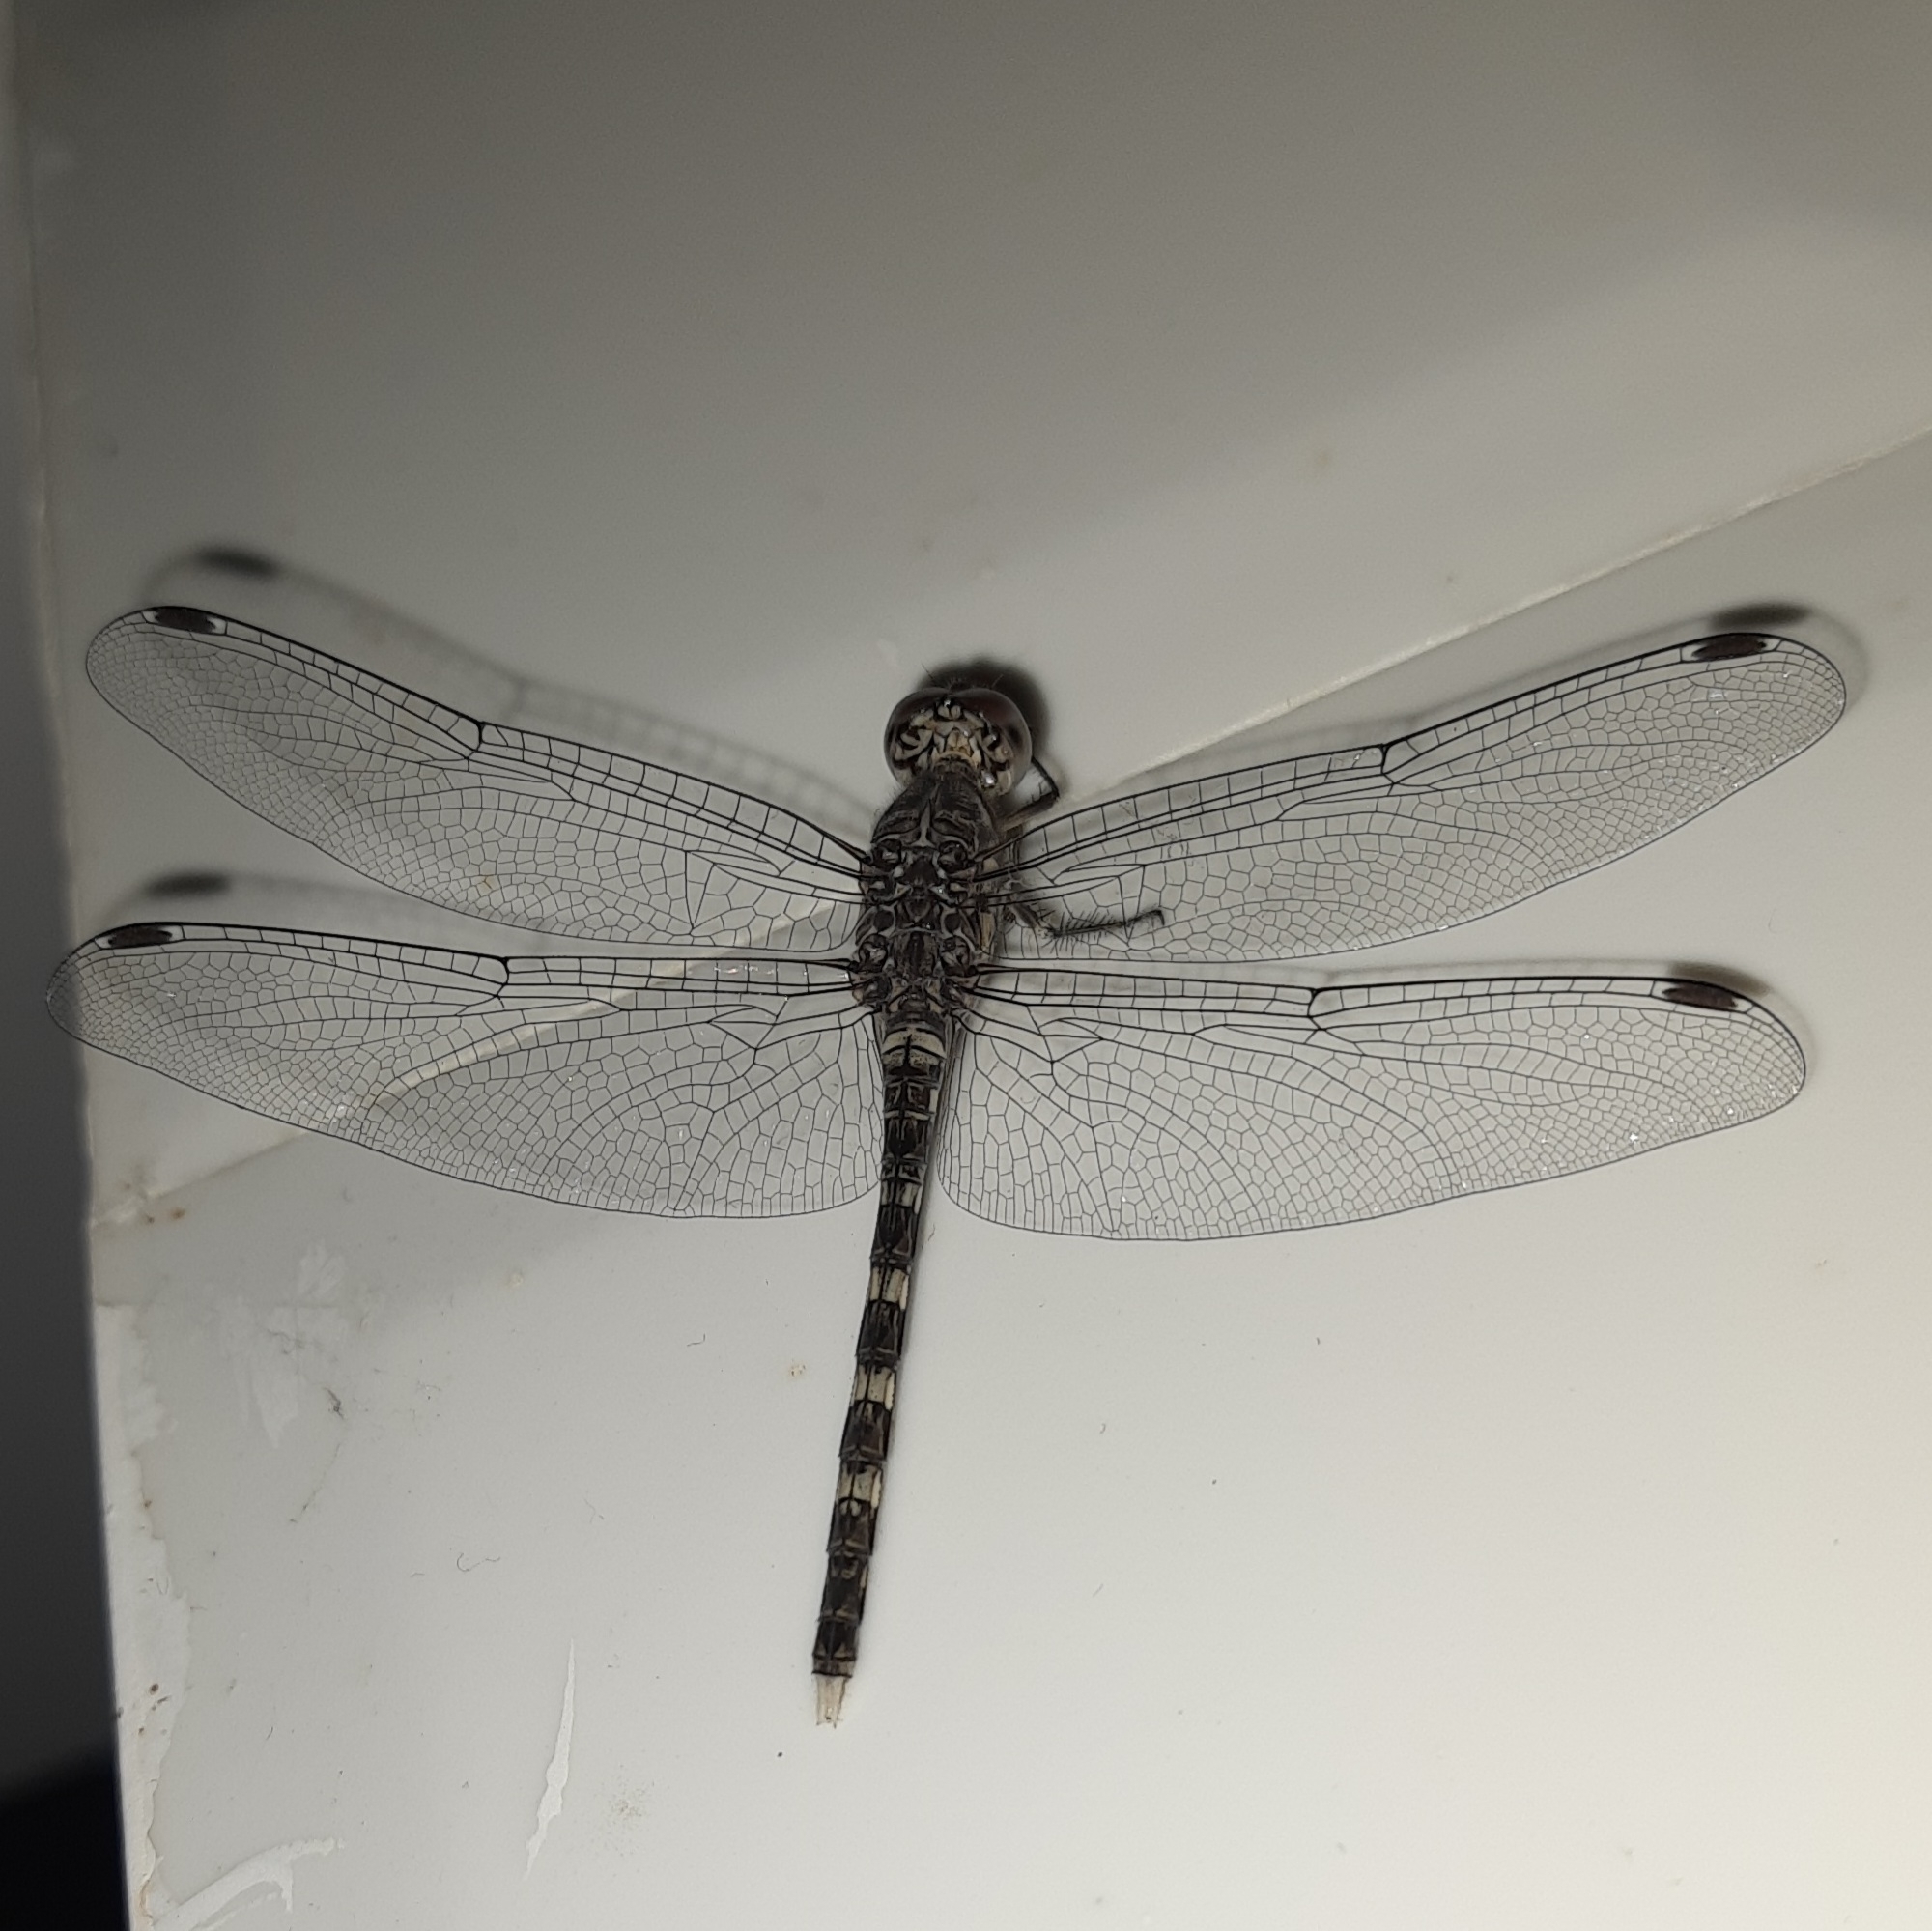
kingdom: Animalia
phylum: Arthropoda
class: Insecta
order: Odonata
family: Libellulidae
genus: Bradinopyga
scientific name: Bradinopyga geminata
